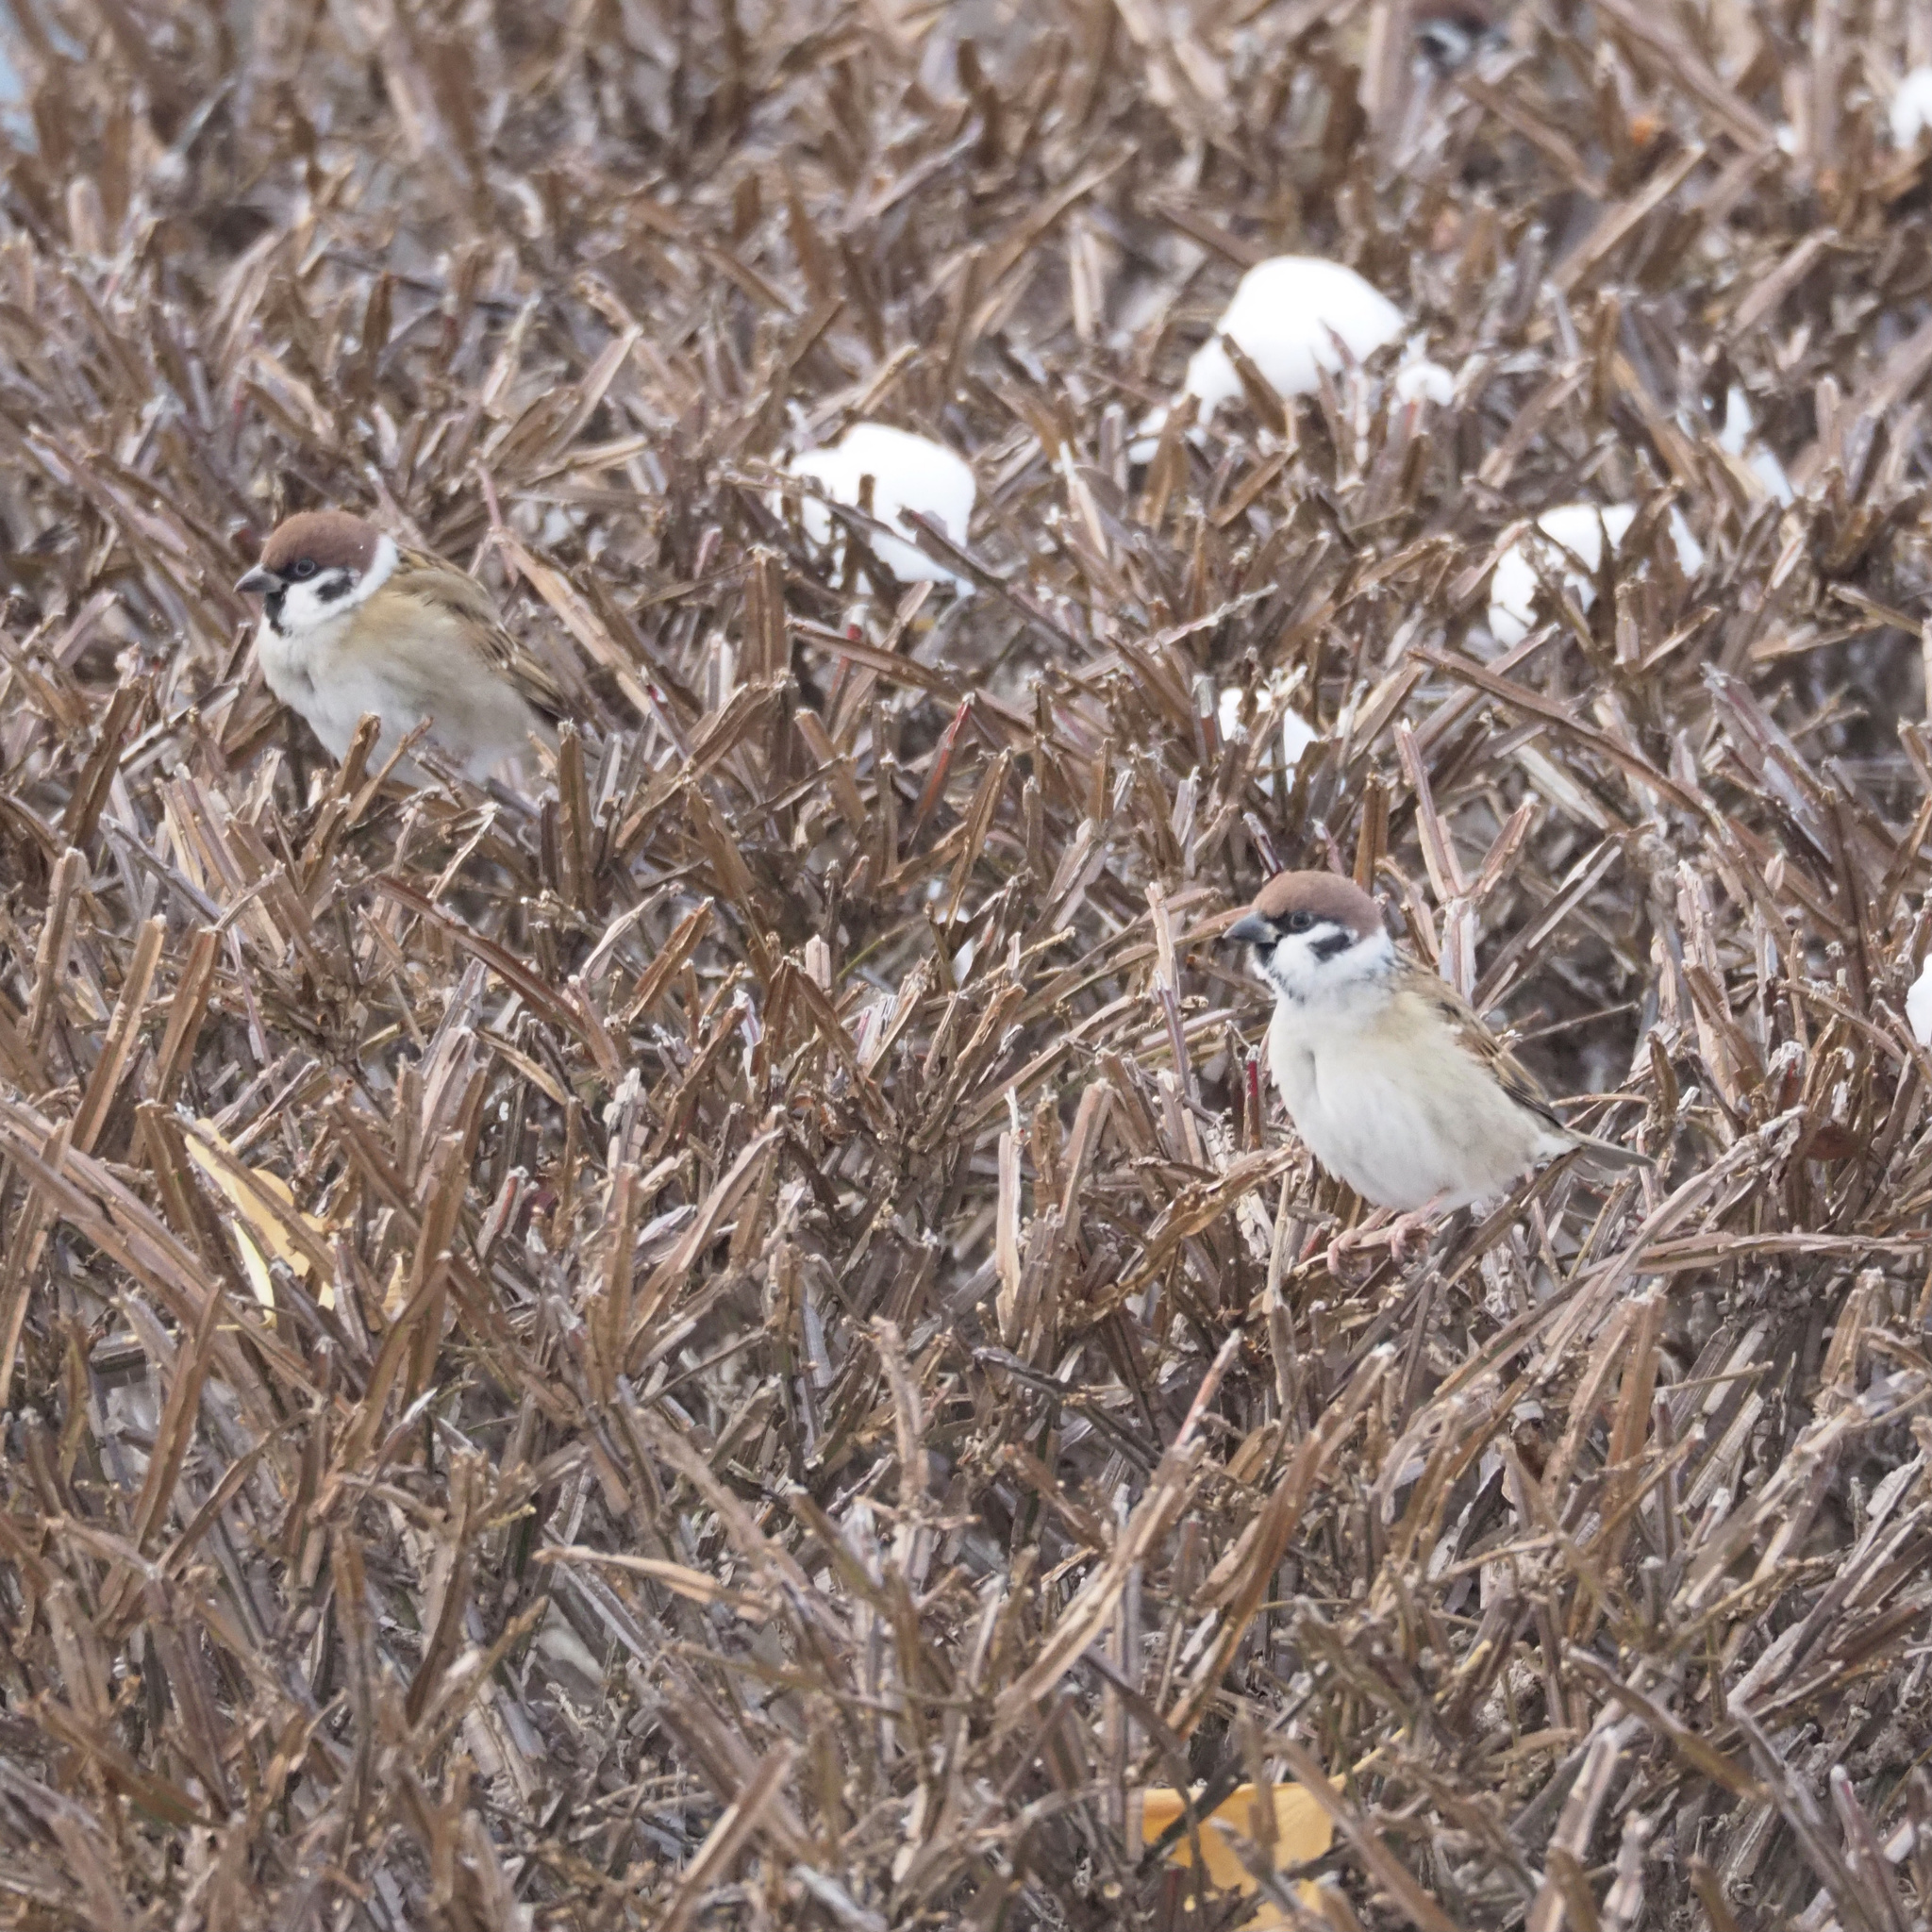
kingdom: Animalia
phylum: Chordata
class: Aves
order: Passeriformes
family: Passeridae
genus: Passer
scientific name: Passer montanus
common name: Eurasian tree sparrow
